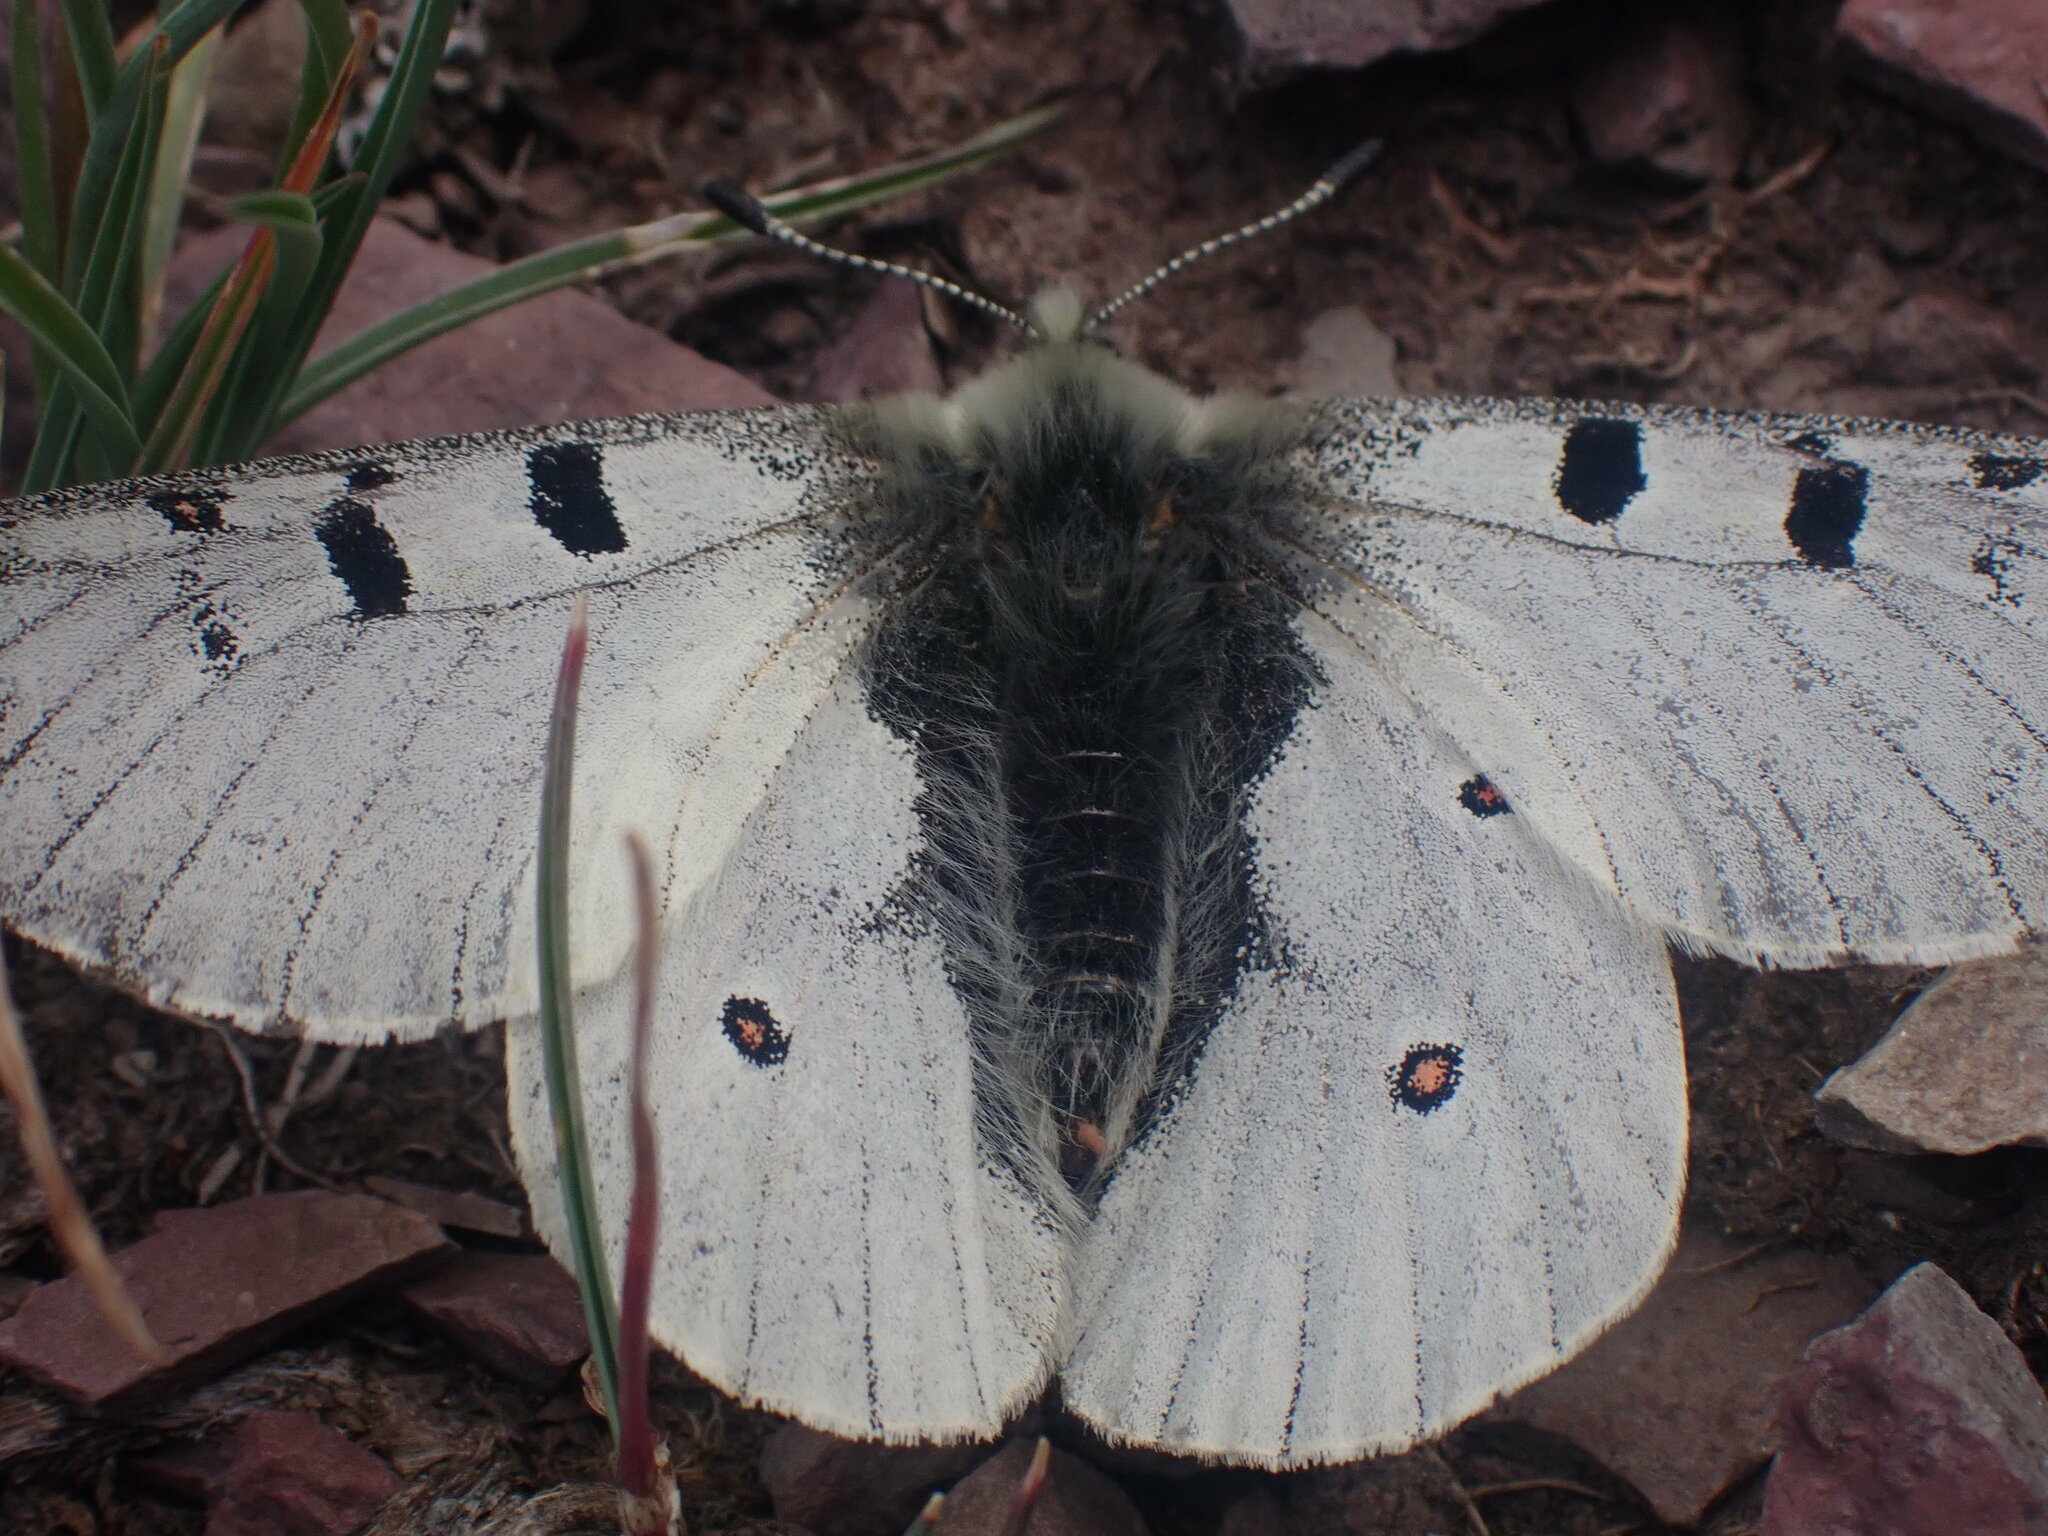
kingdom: Animalia
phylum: Arthropoda
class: Insecta
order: Lepidoptera
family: Papilionidae
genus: Parnassius
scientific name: Parnassius smintheus
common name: Mountain parnassian
